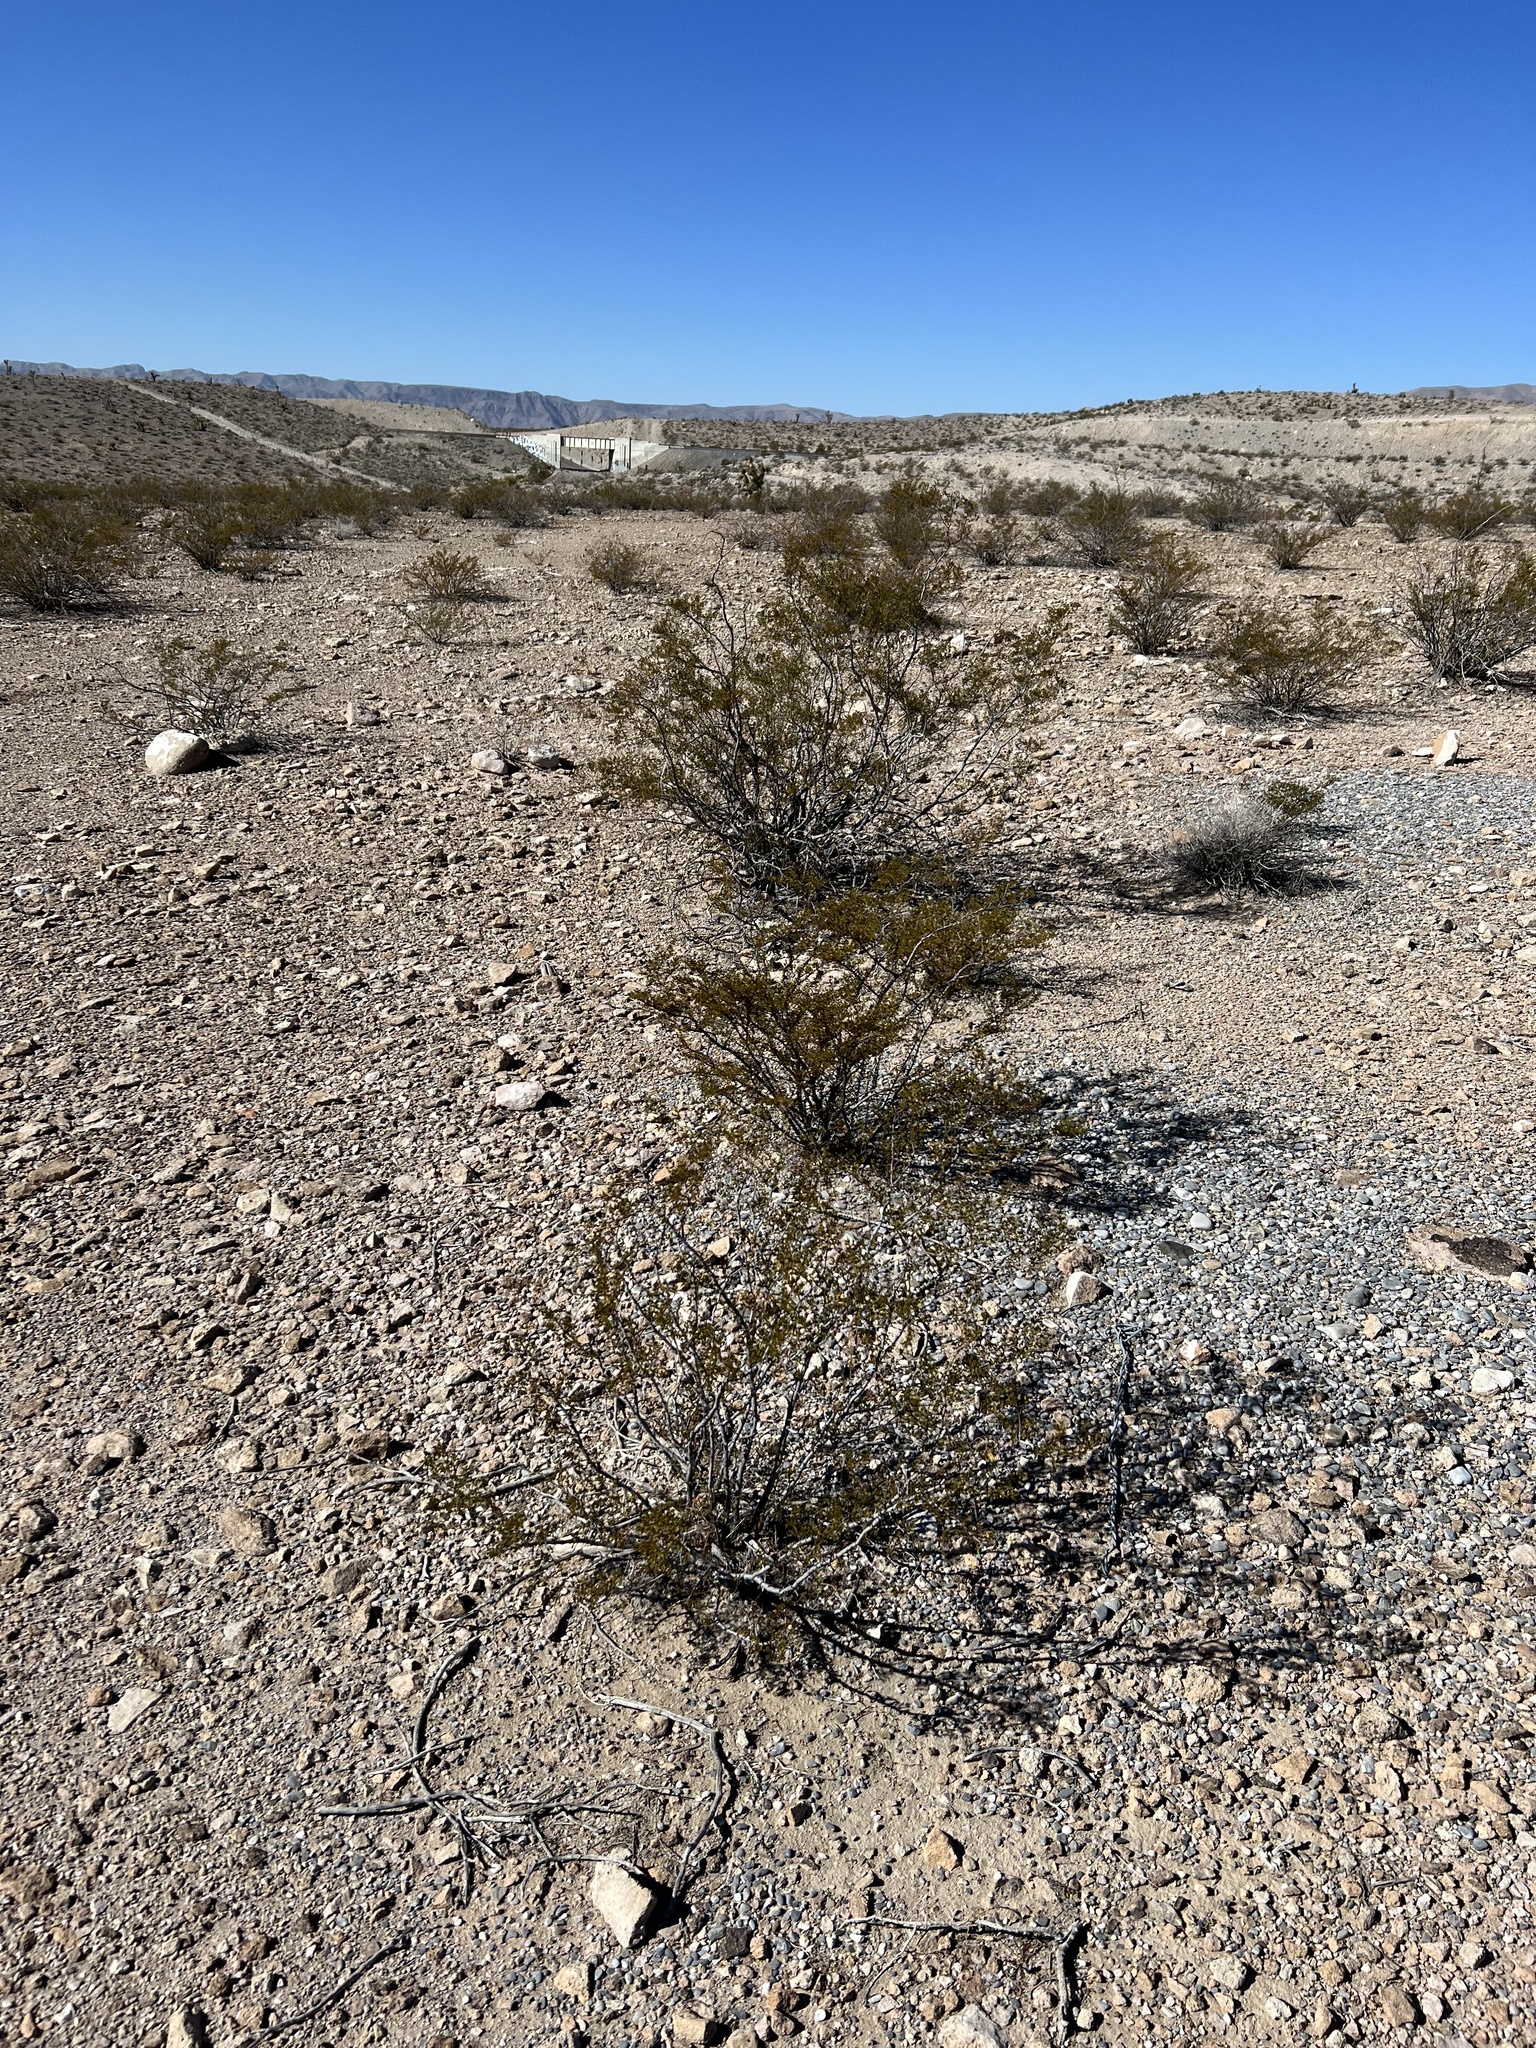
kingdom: Plantae
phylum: Tracheophyta
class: Magnoliopsida
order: Zygophyllales
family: Zygophyllaceae
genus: Larrea
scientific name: Larrea tridentata
